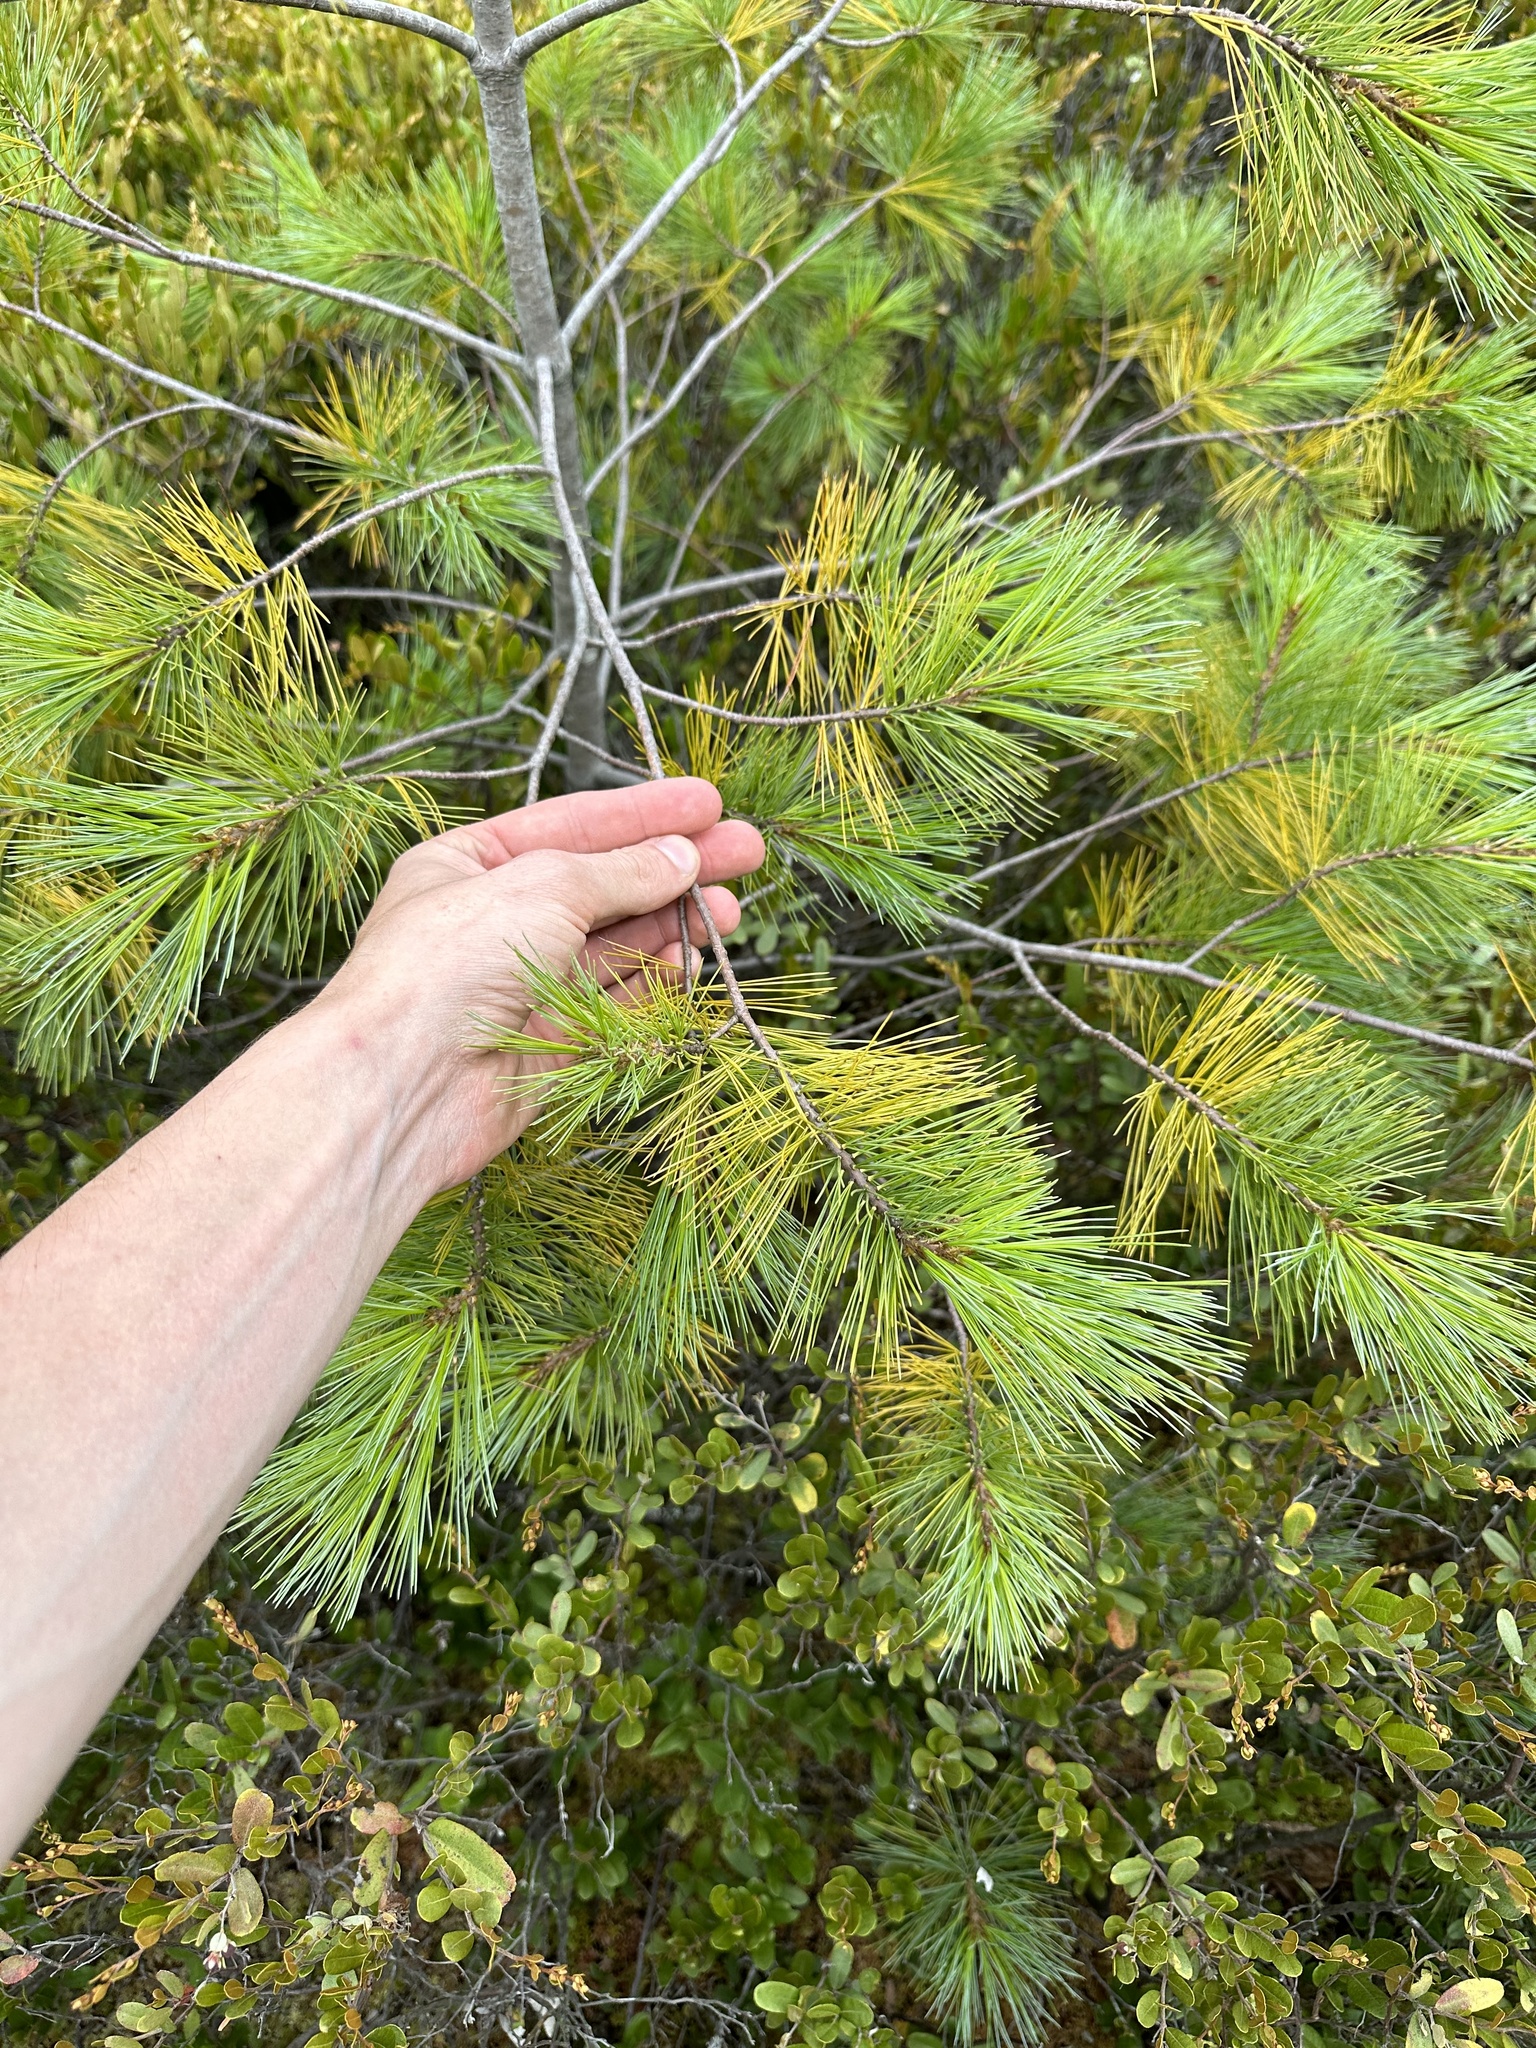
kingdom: Plantae
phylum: Tracheophyta
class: Pinopsida
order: Pinales
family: Pinaceae
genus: Pinus
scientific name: Pinus strobus
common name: Weymouth pine
